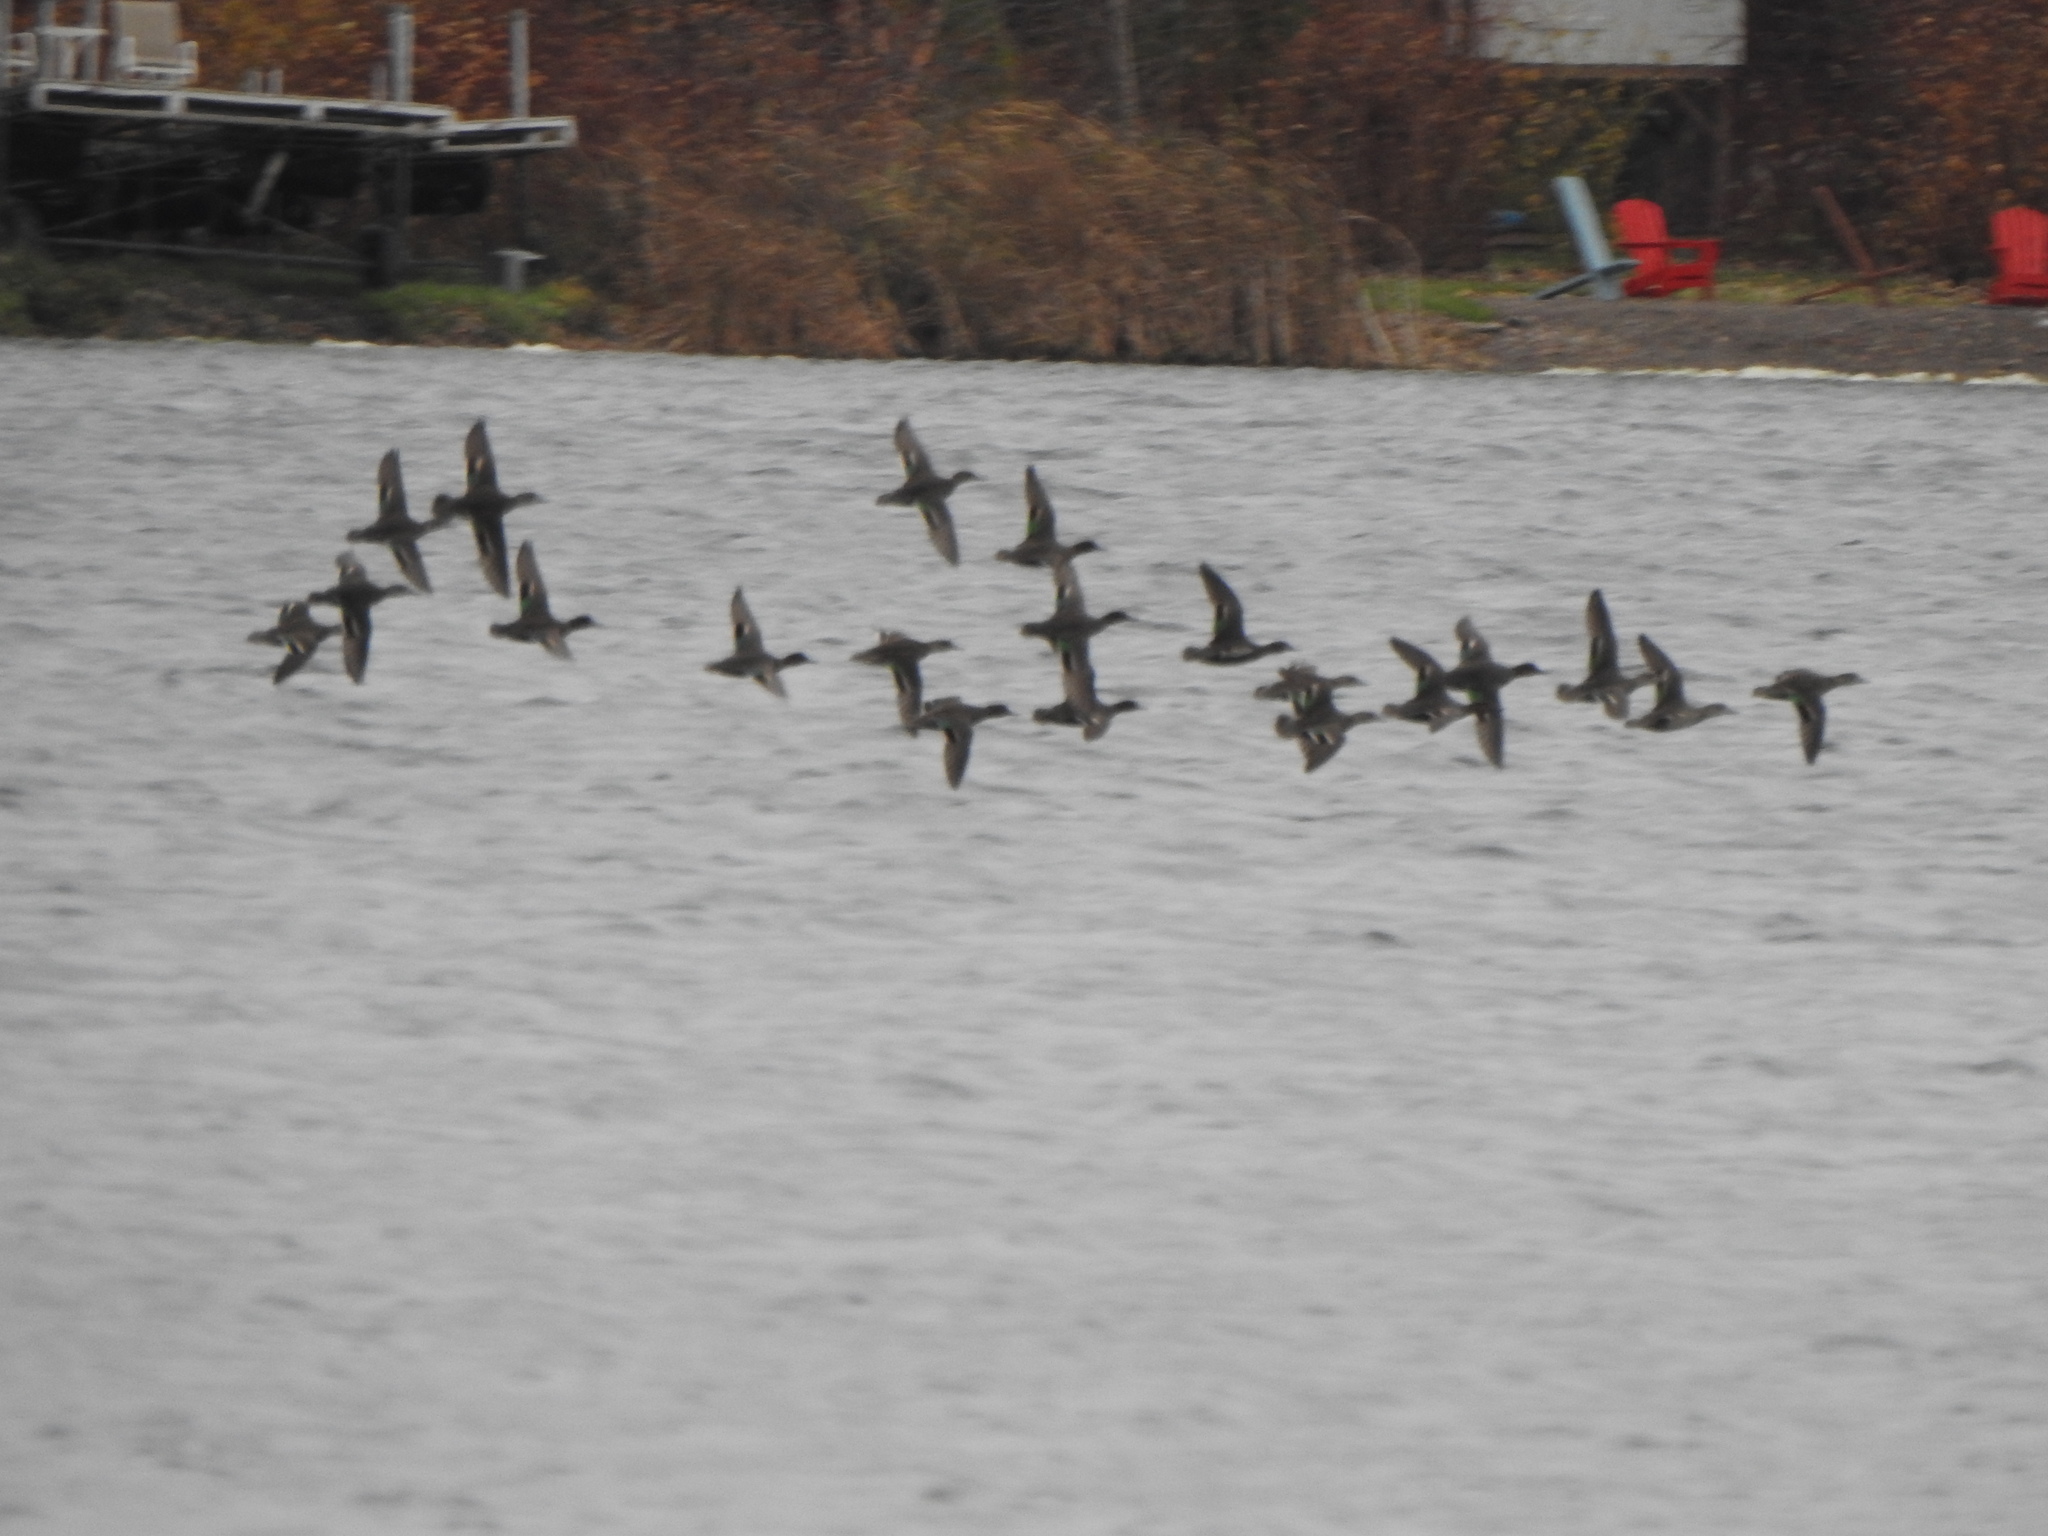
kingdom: Animalia
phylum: Chordata
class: Aves
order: Anseriformes
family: Anatidae
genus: Anas
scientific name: Anas carolinensis
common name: Green-winged teal
